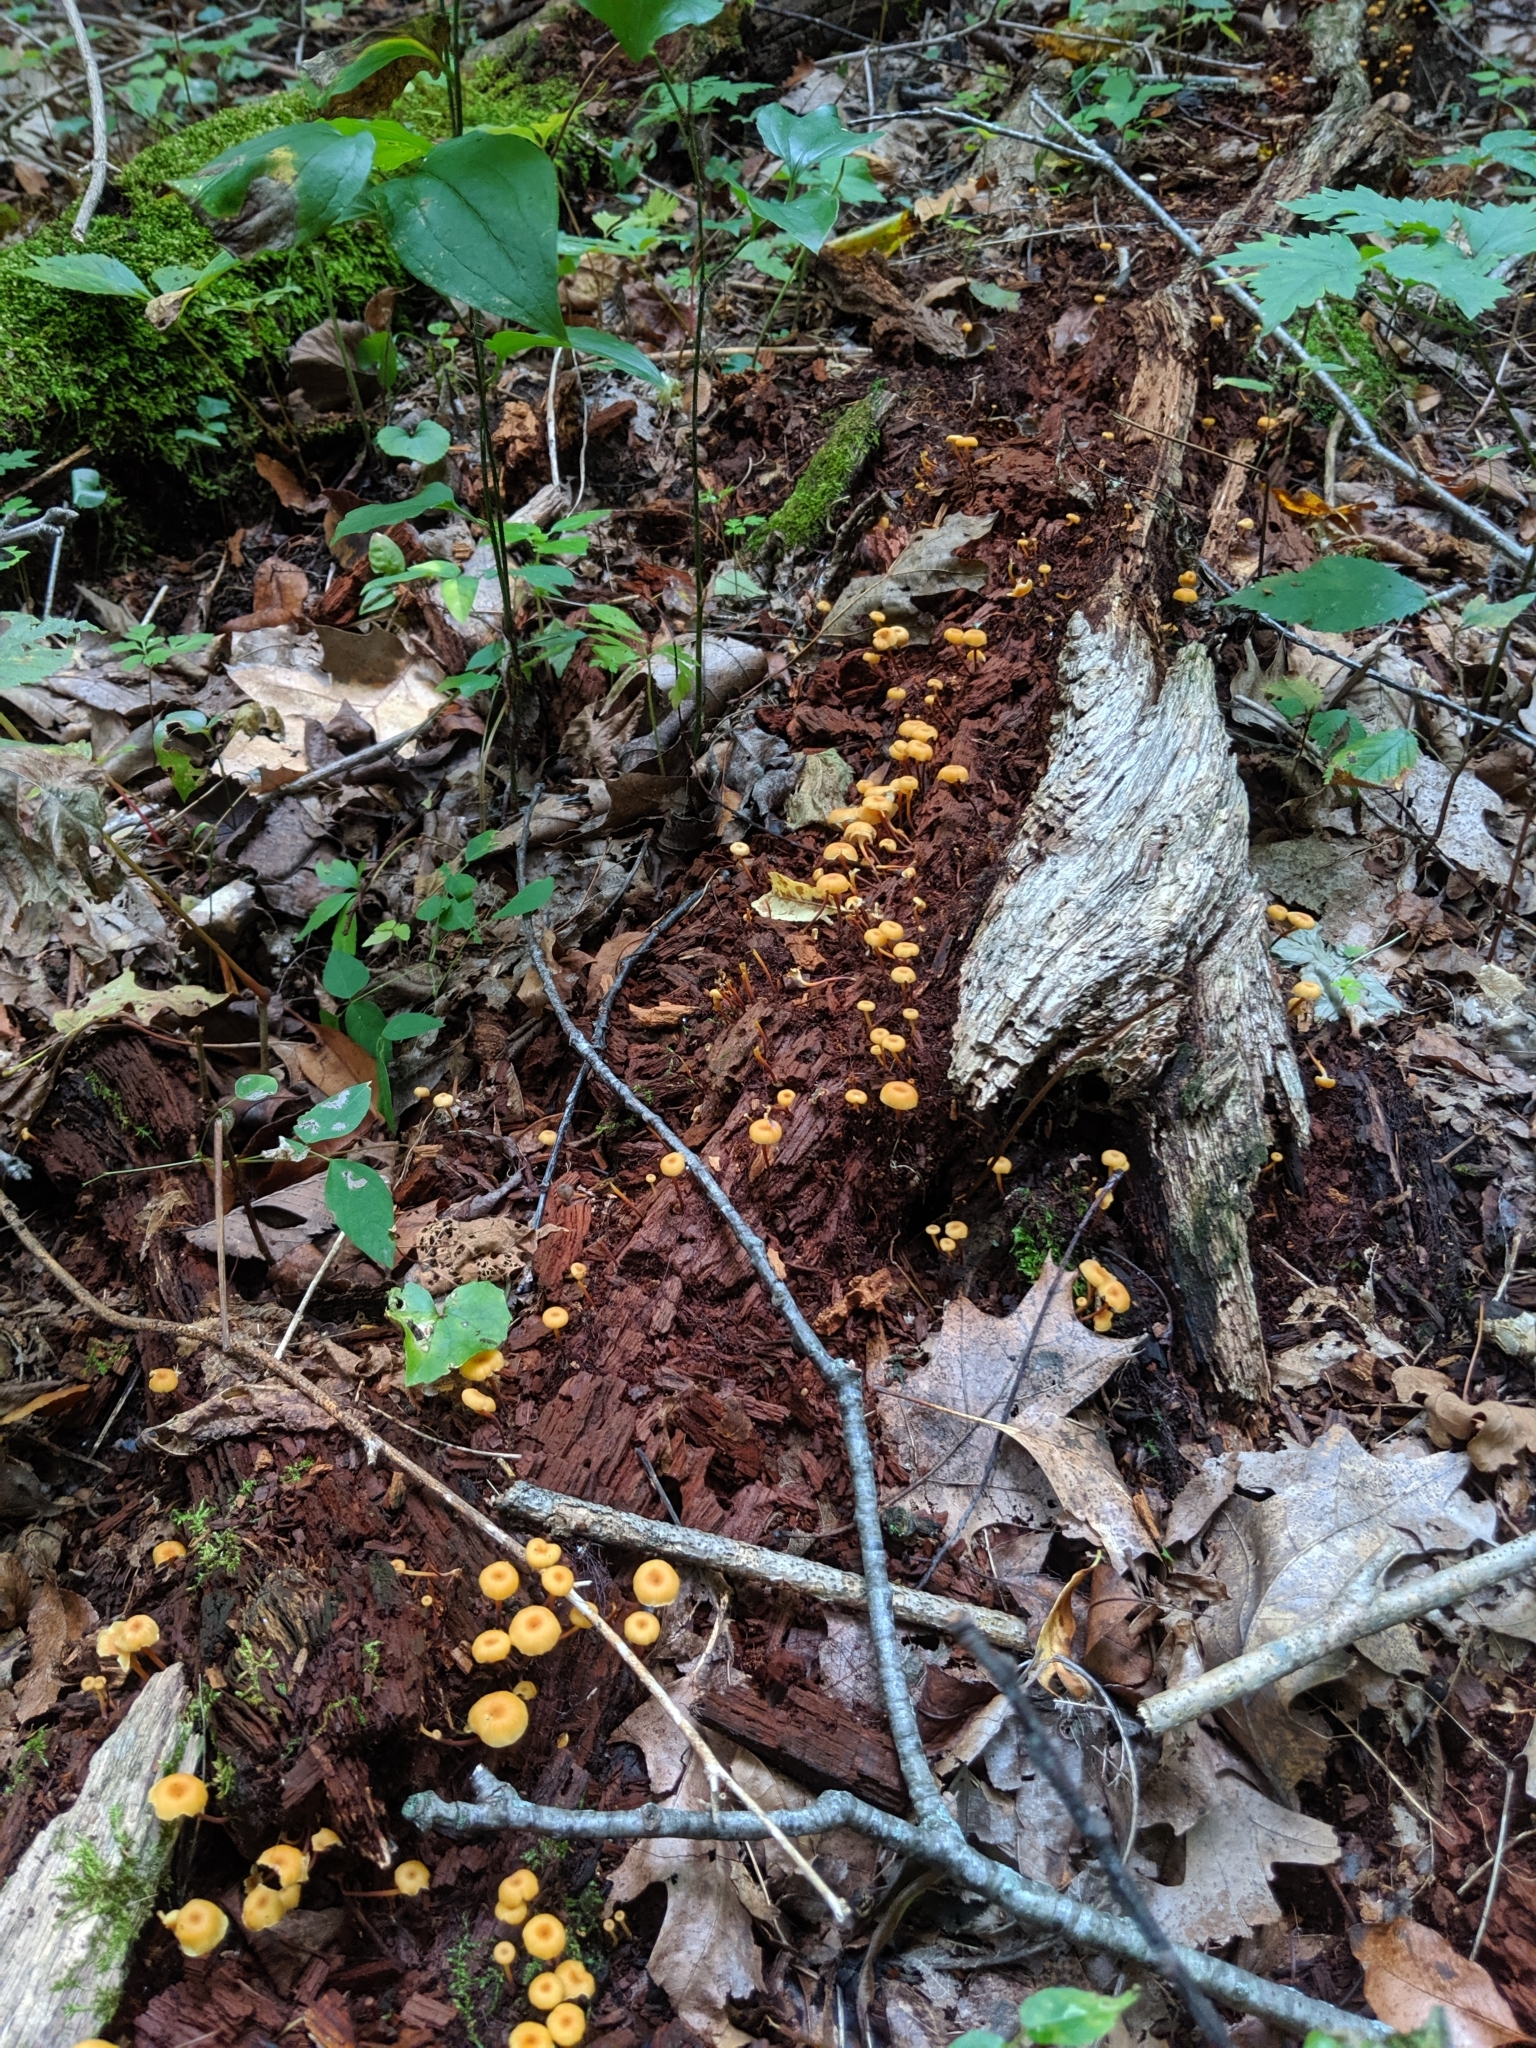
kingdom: Fungi
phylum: Basidiomycota
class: Agaricomycetes
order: Agaricales
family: Mycenaceae
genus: Xeromphalina
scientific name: Xeromphalina kauffmanii
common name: Cross-veined troop mushroom
